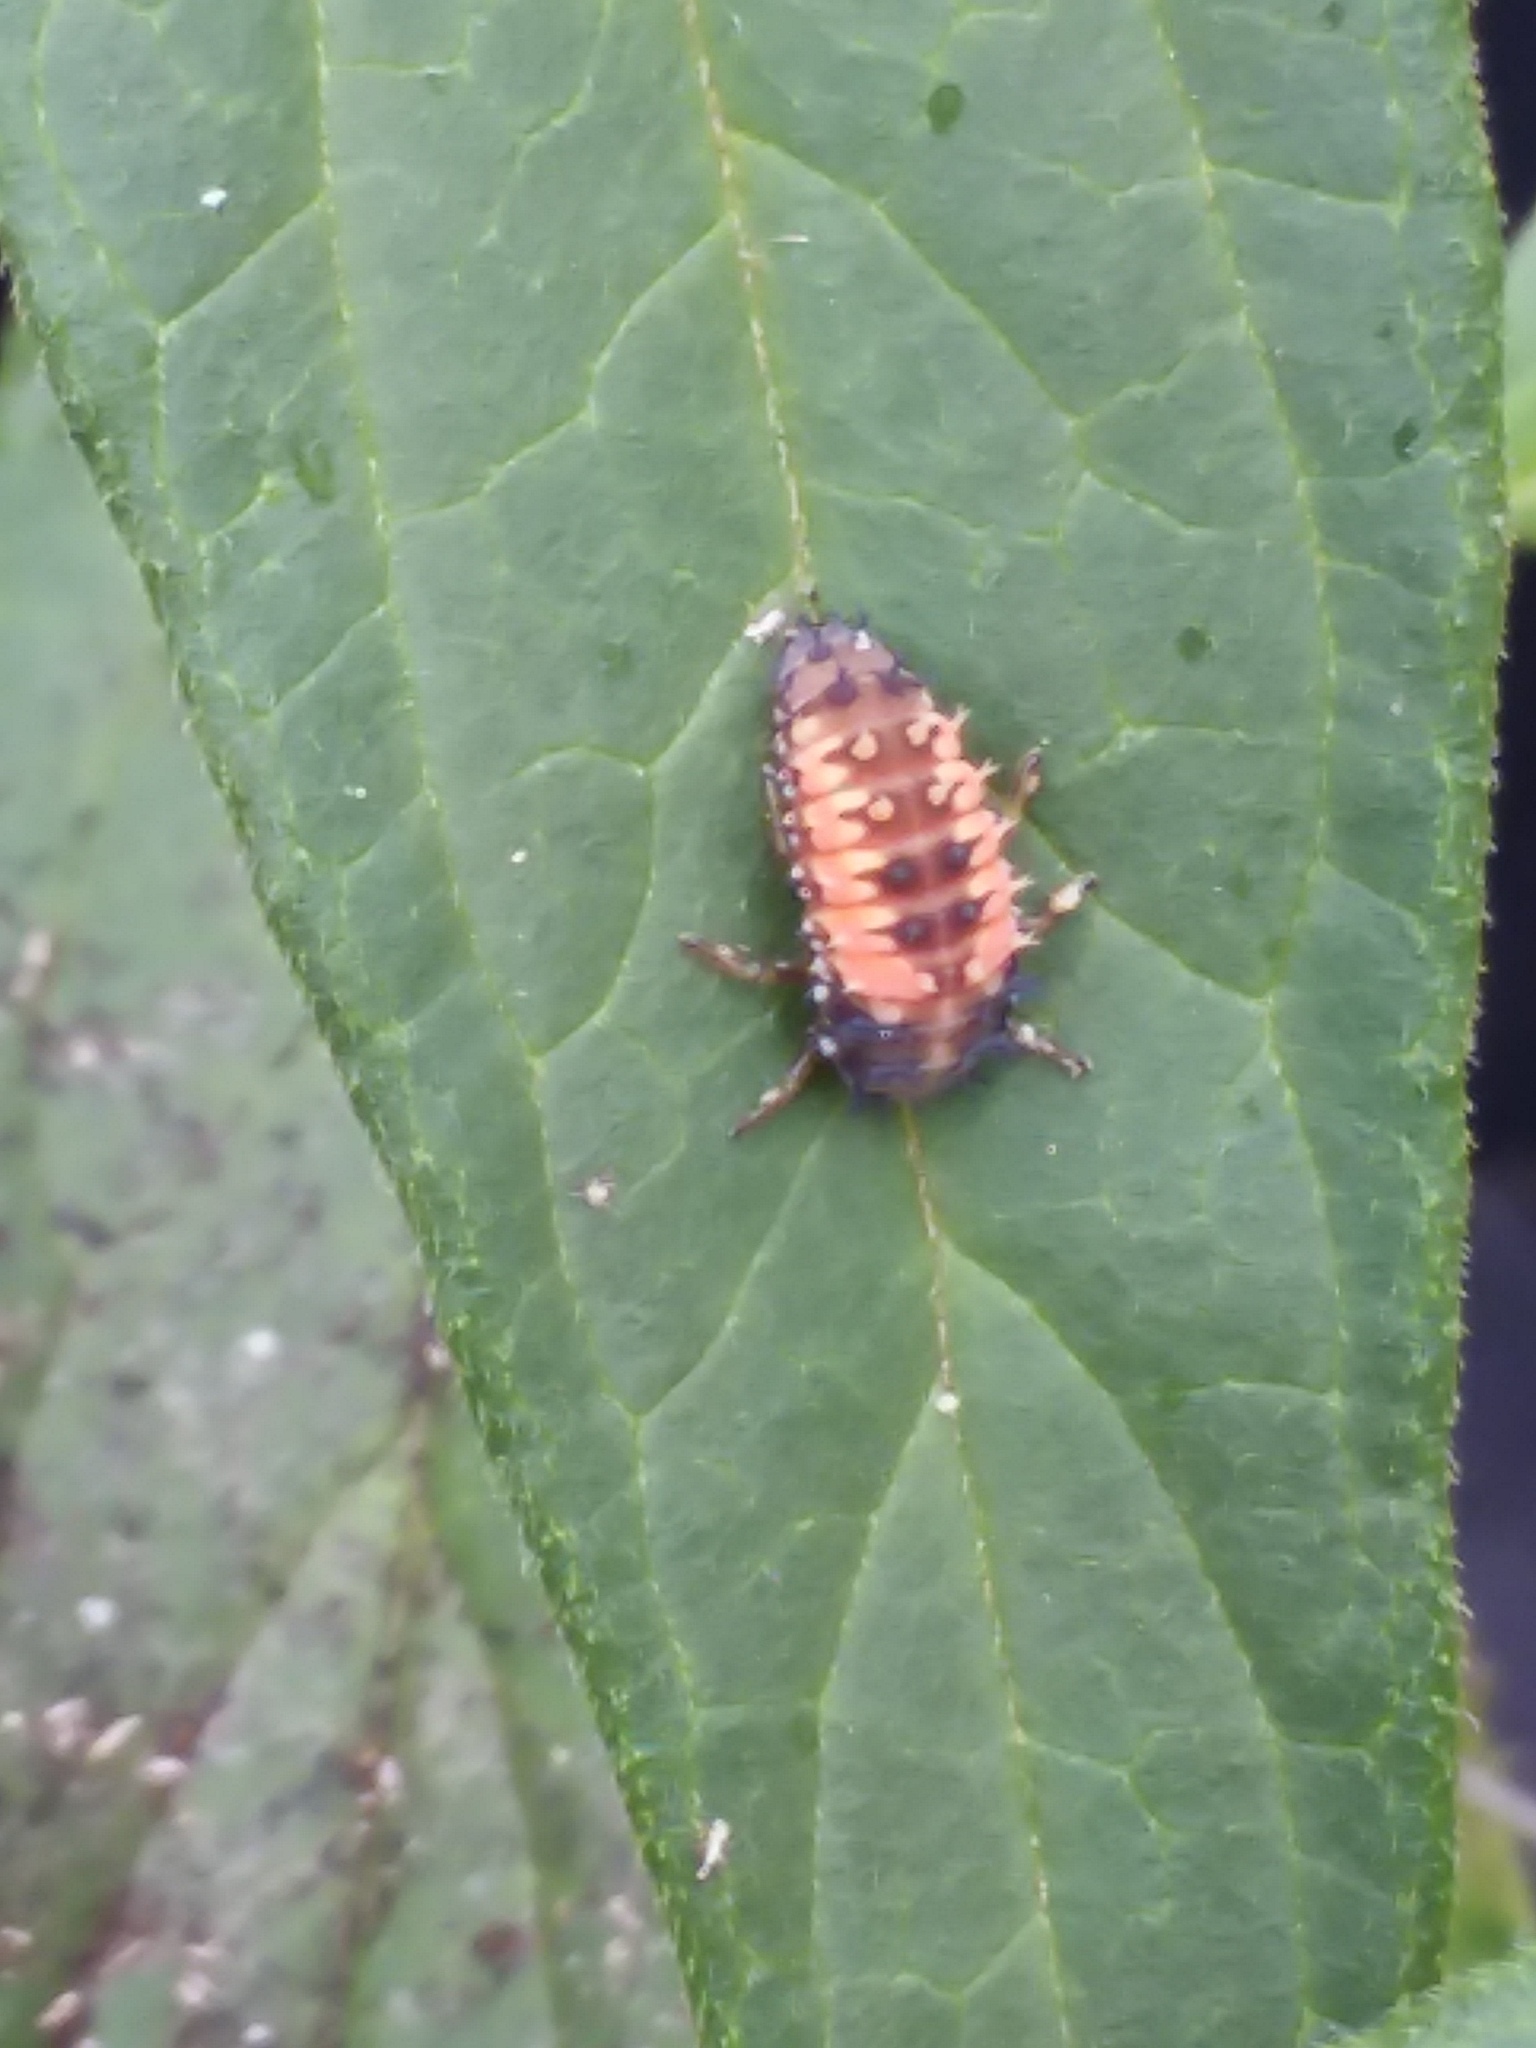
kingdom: Animalia
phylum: Arthropoda
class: Insecta
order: Coleoptera
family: Coccinellidae
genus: Harmonia
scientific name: Harmonia axyridis
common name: Harlequin ladybird
